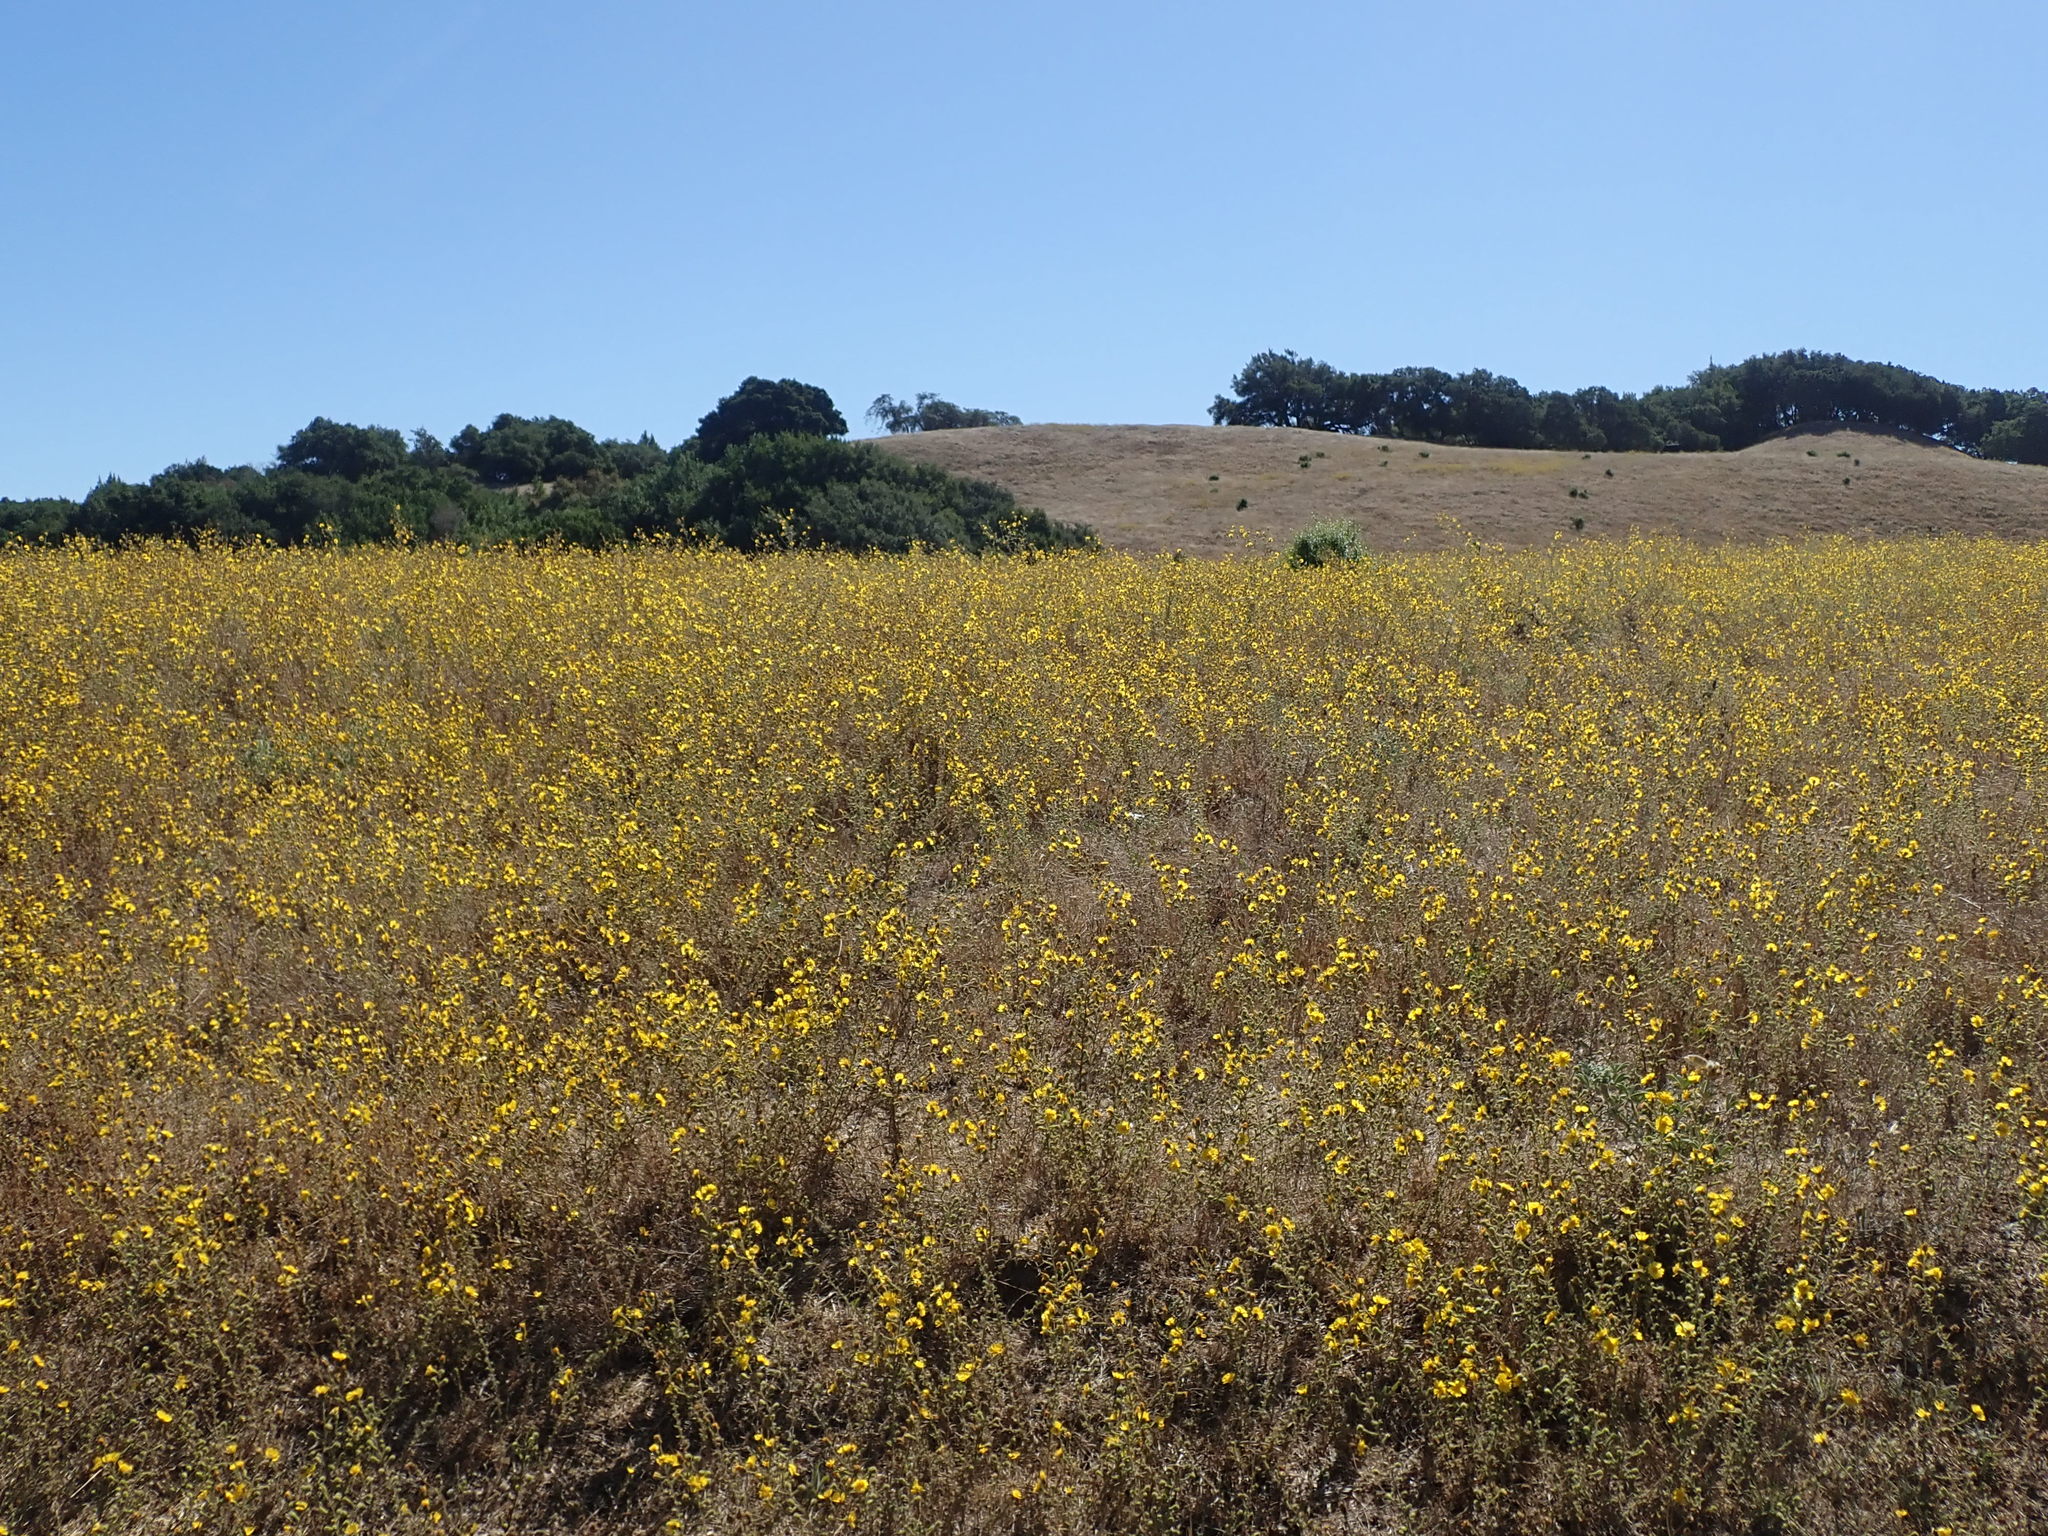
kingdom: Plantae
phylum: Tracheophyta
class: Magnoliopsida
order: Asterales
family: Asteraceae
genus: Holocarpha
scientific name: Holocarpha heermannii
